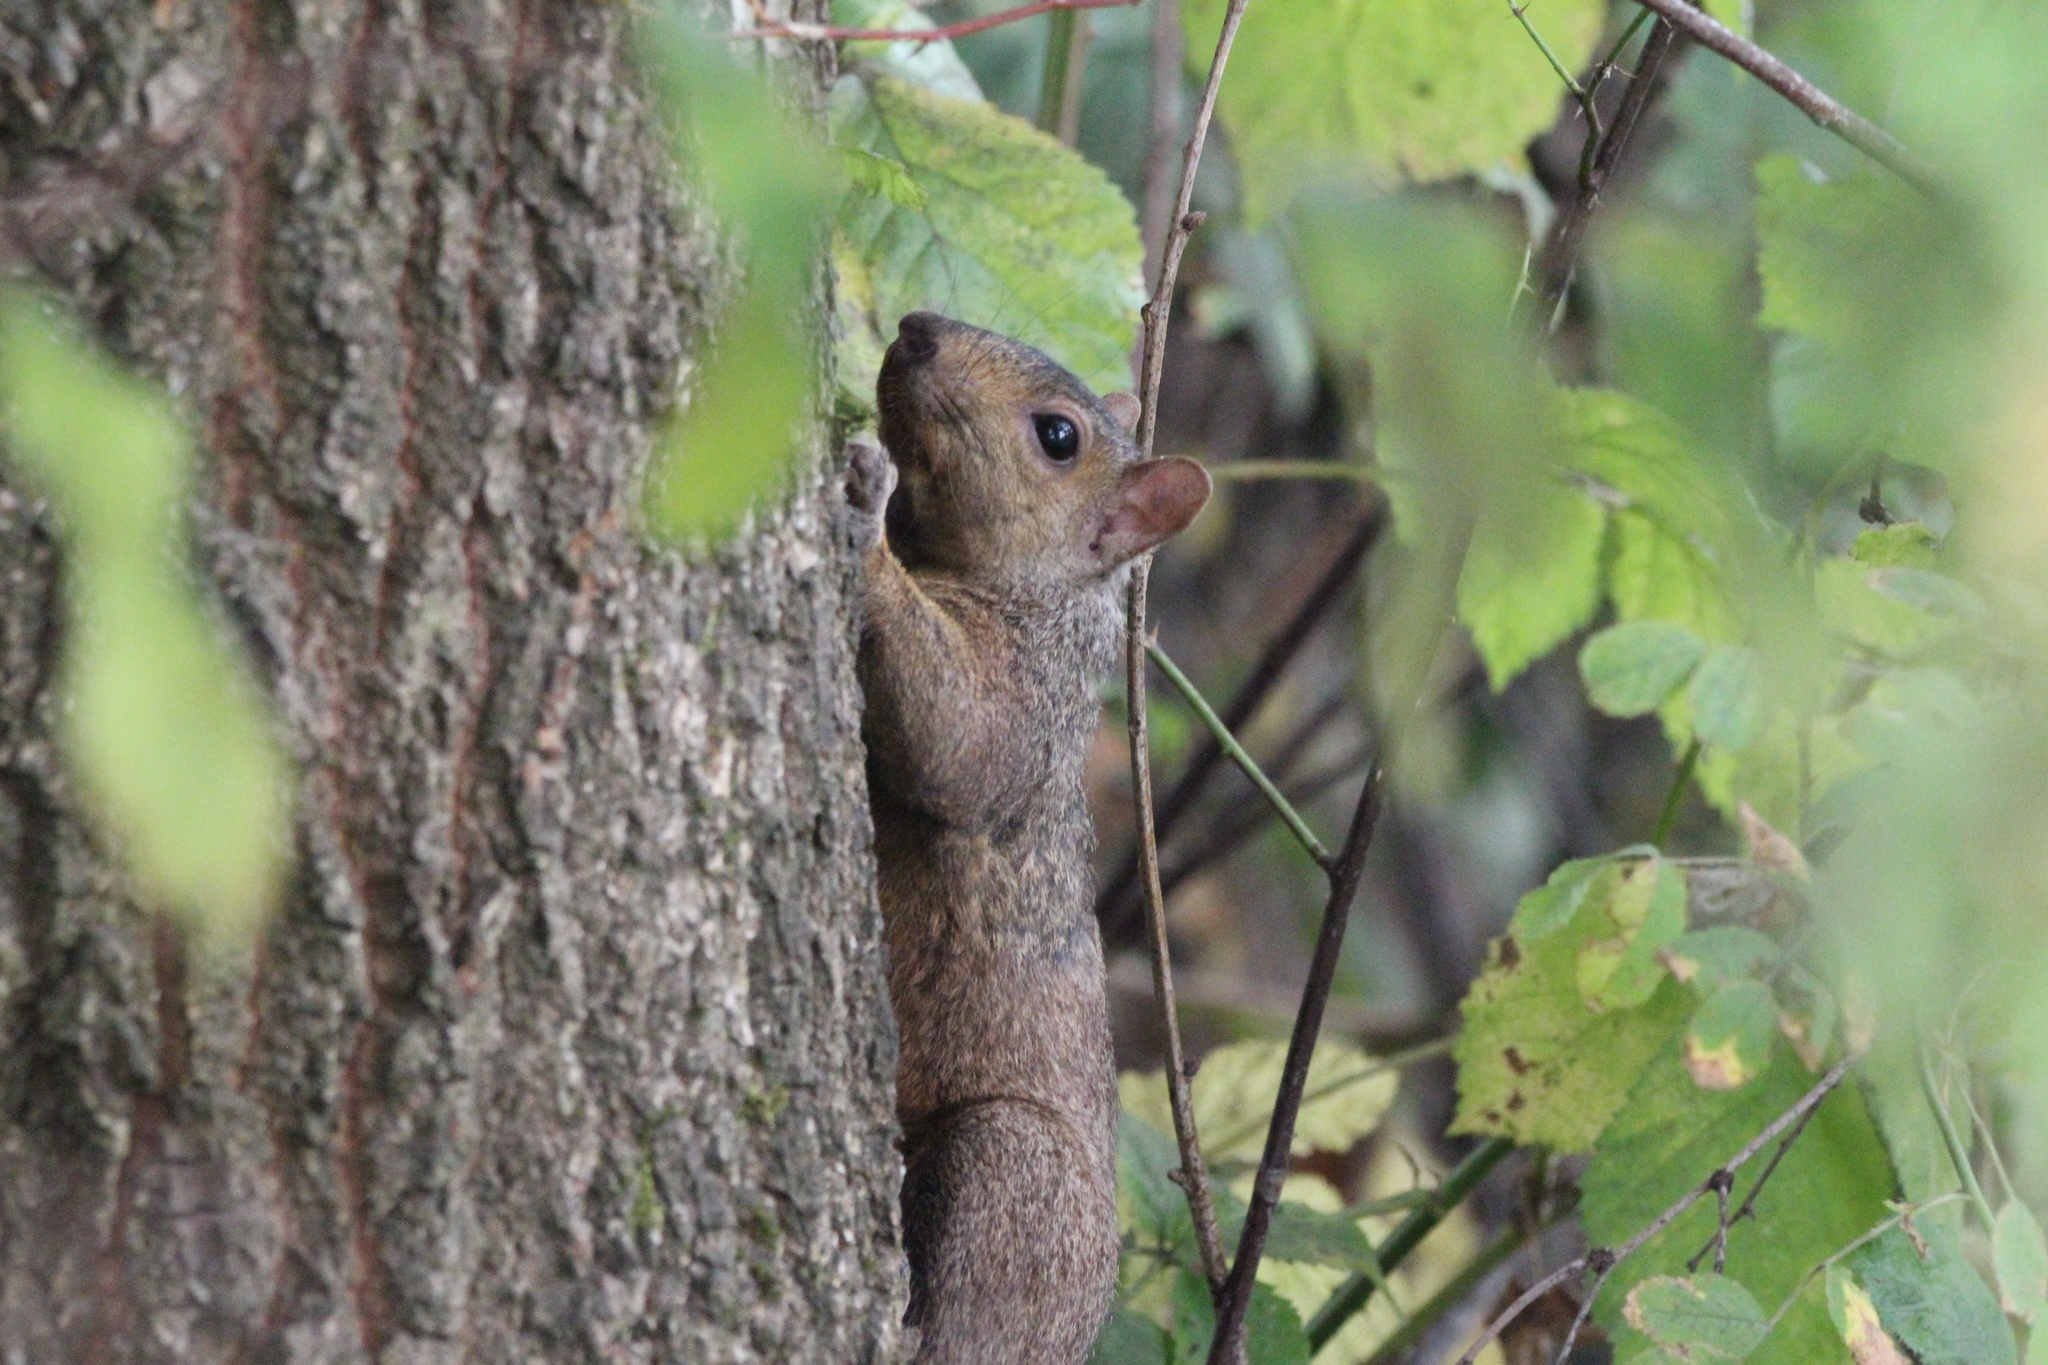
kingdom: Animalia
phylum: Chordata
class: Mammalia
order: Rodentia
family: Sciuridae
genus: Sciurus
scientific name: Sciurus carolinensis
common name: Eastern gray squirrel
